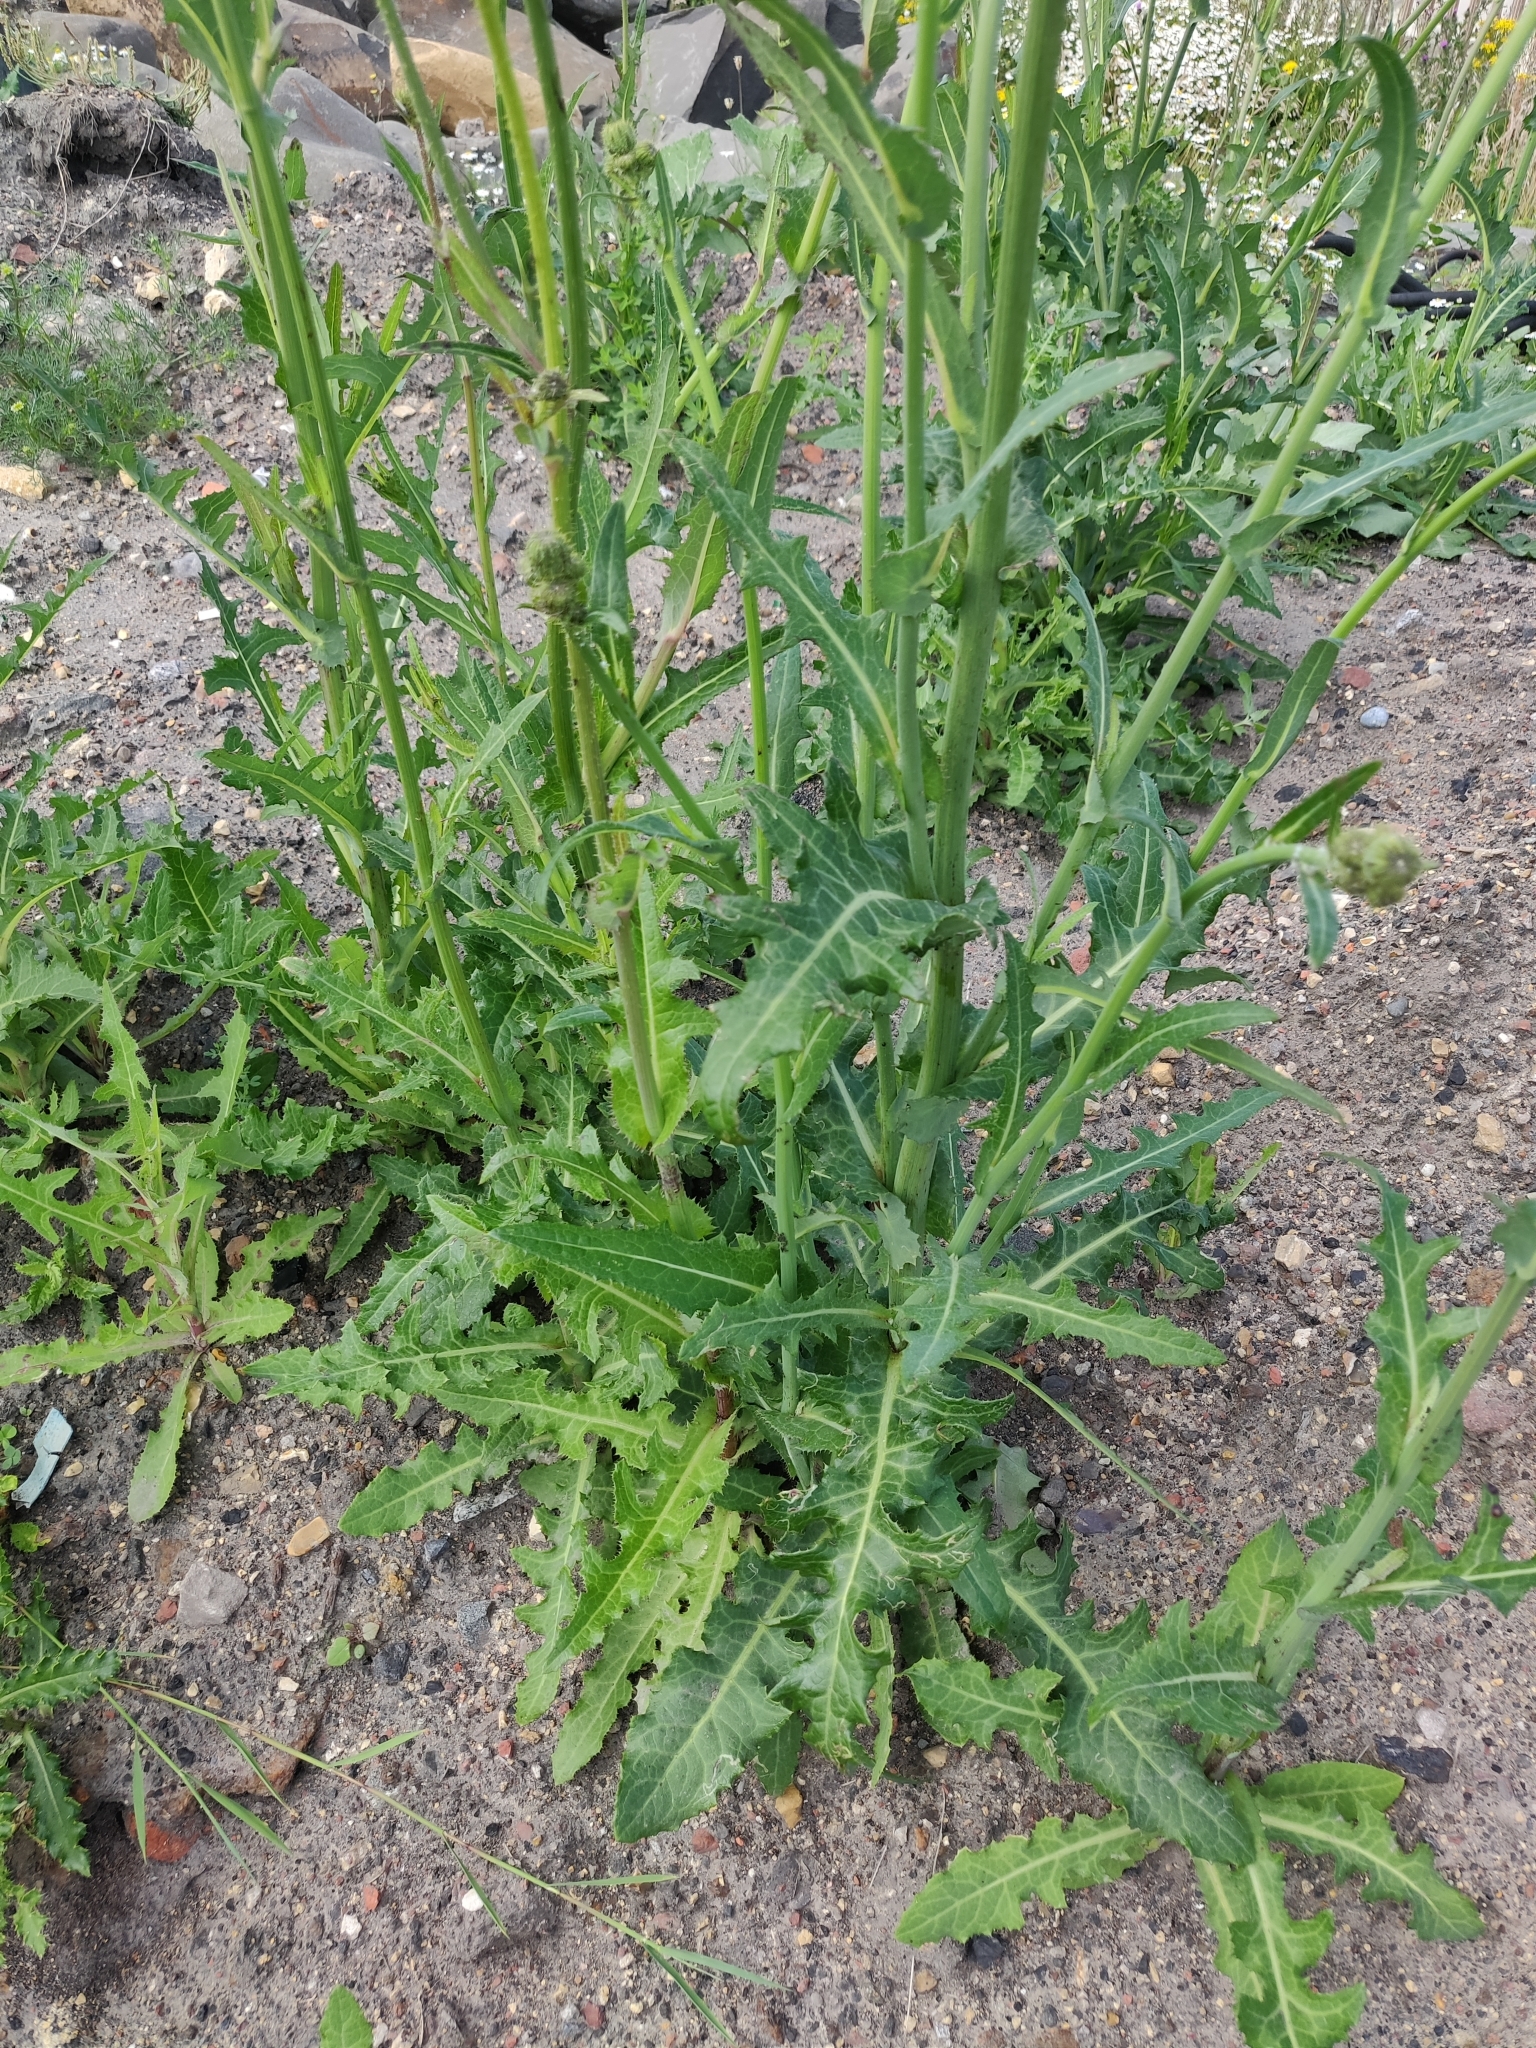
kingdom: Plantae
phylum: Tracheophyta
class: Magnoliopsida
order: Asterales
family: Asteraceae
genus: Sonchus
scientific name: Sonchus arvensis
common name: Perennial sow-thistle
